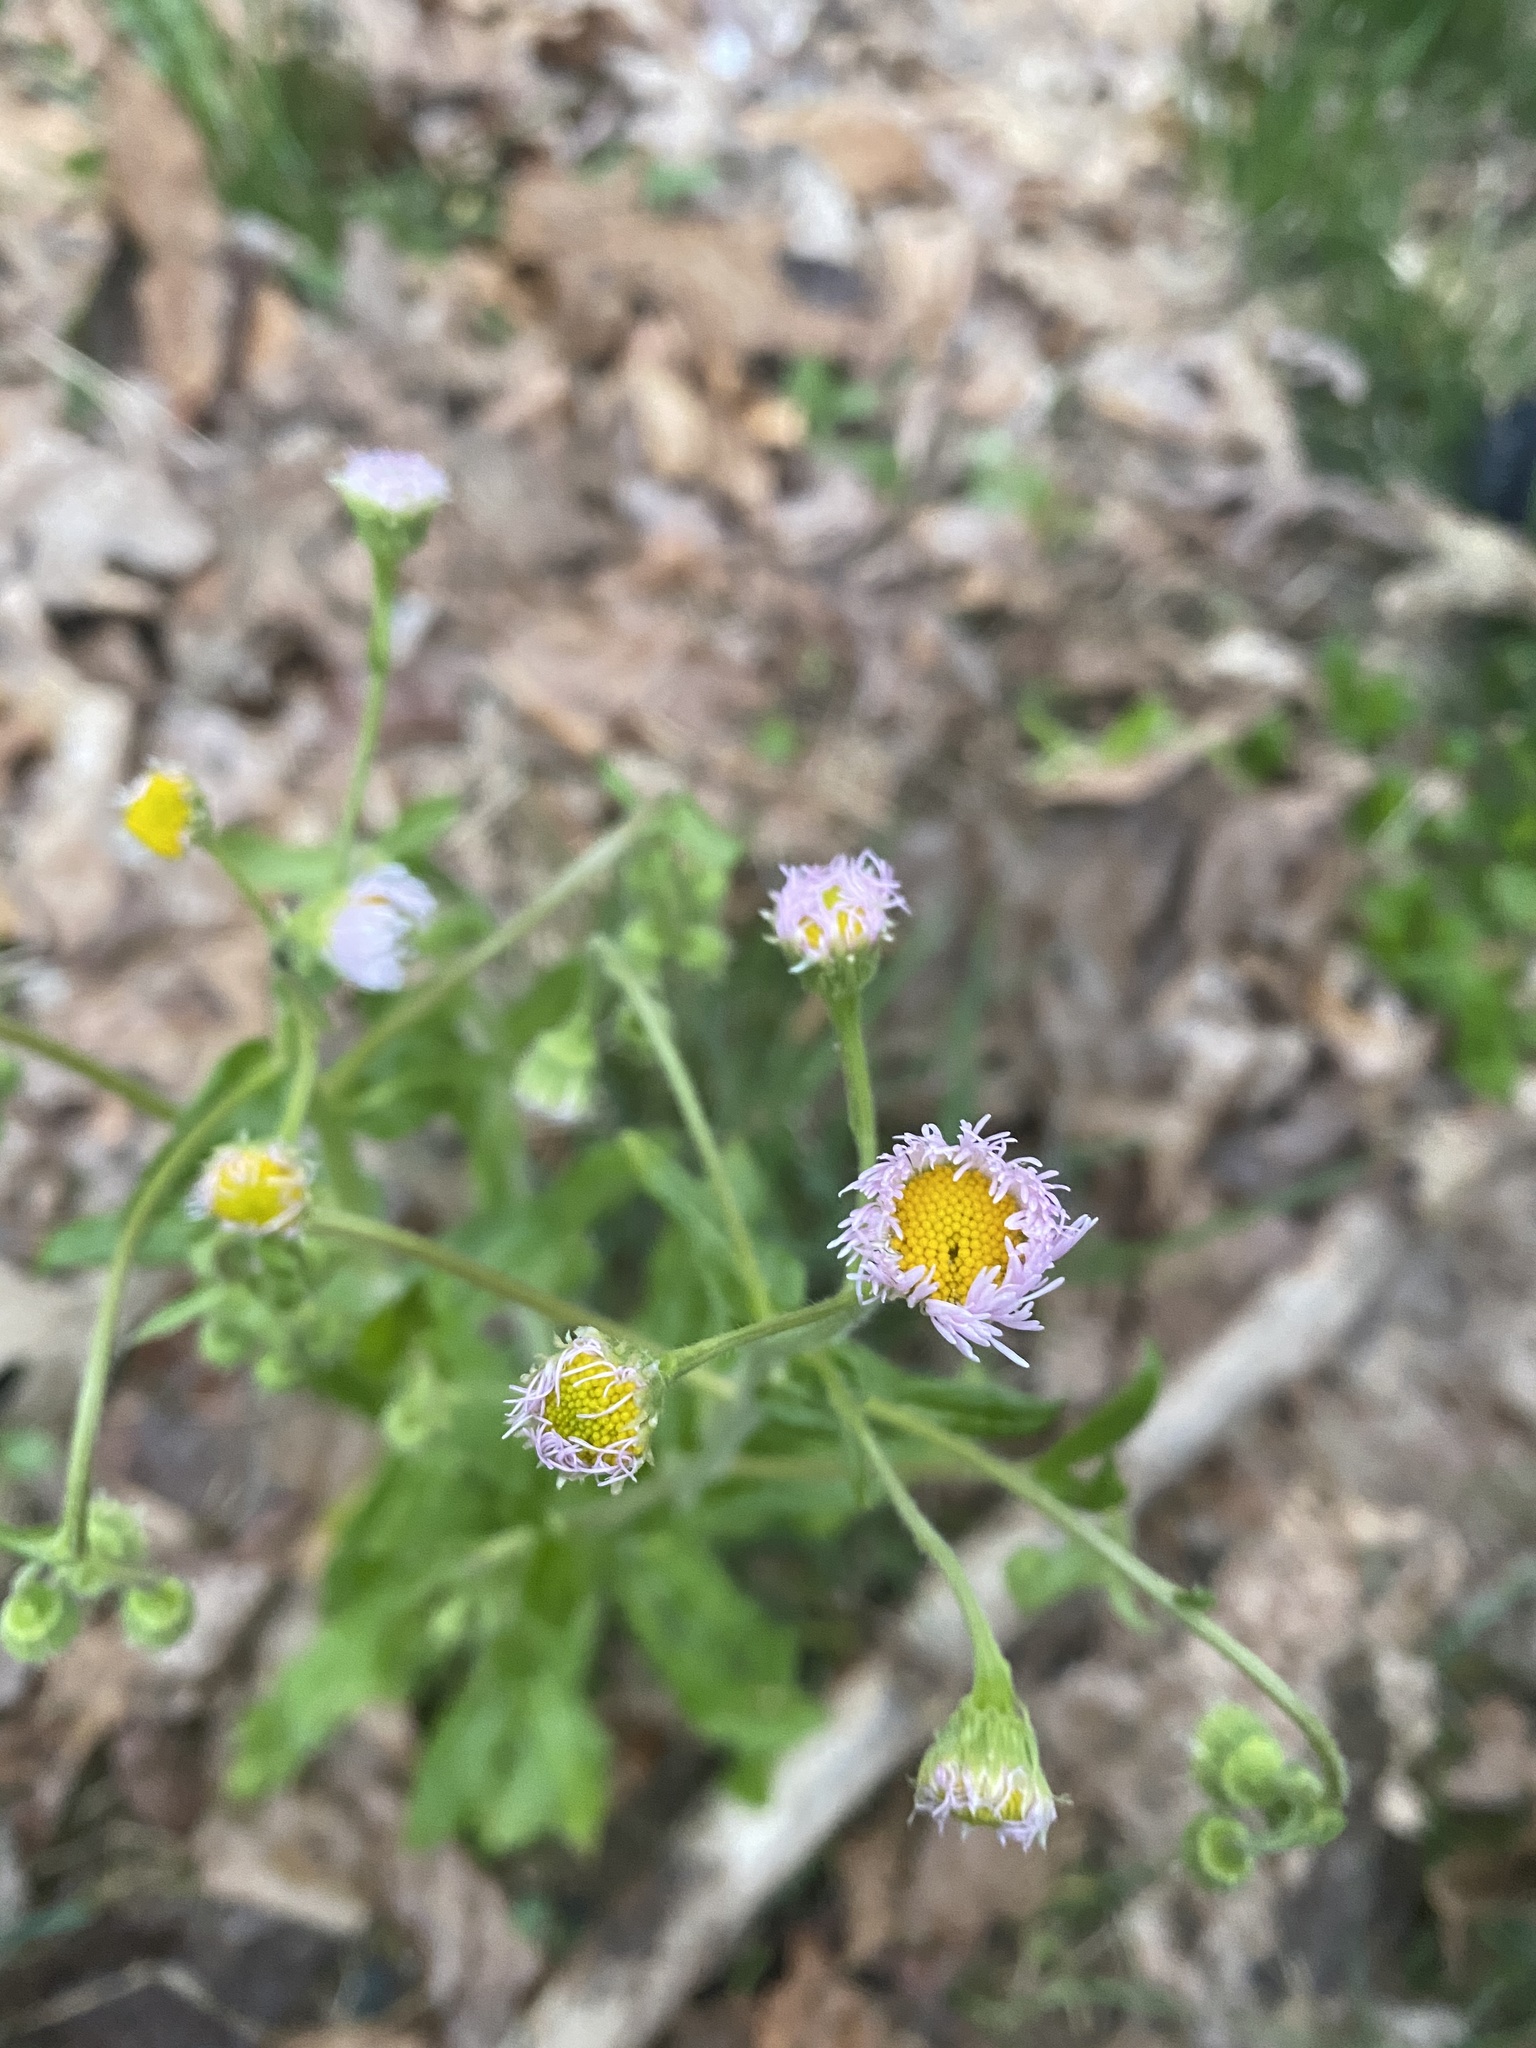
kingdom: Plantae
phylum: Tracheophyta
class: Magnoliopsida
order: Asterales
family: Asteraceae
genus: Erigeron
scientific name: Erigeron pulchellus
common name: Hairy fleabane
